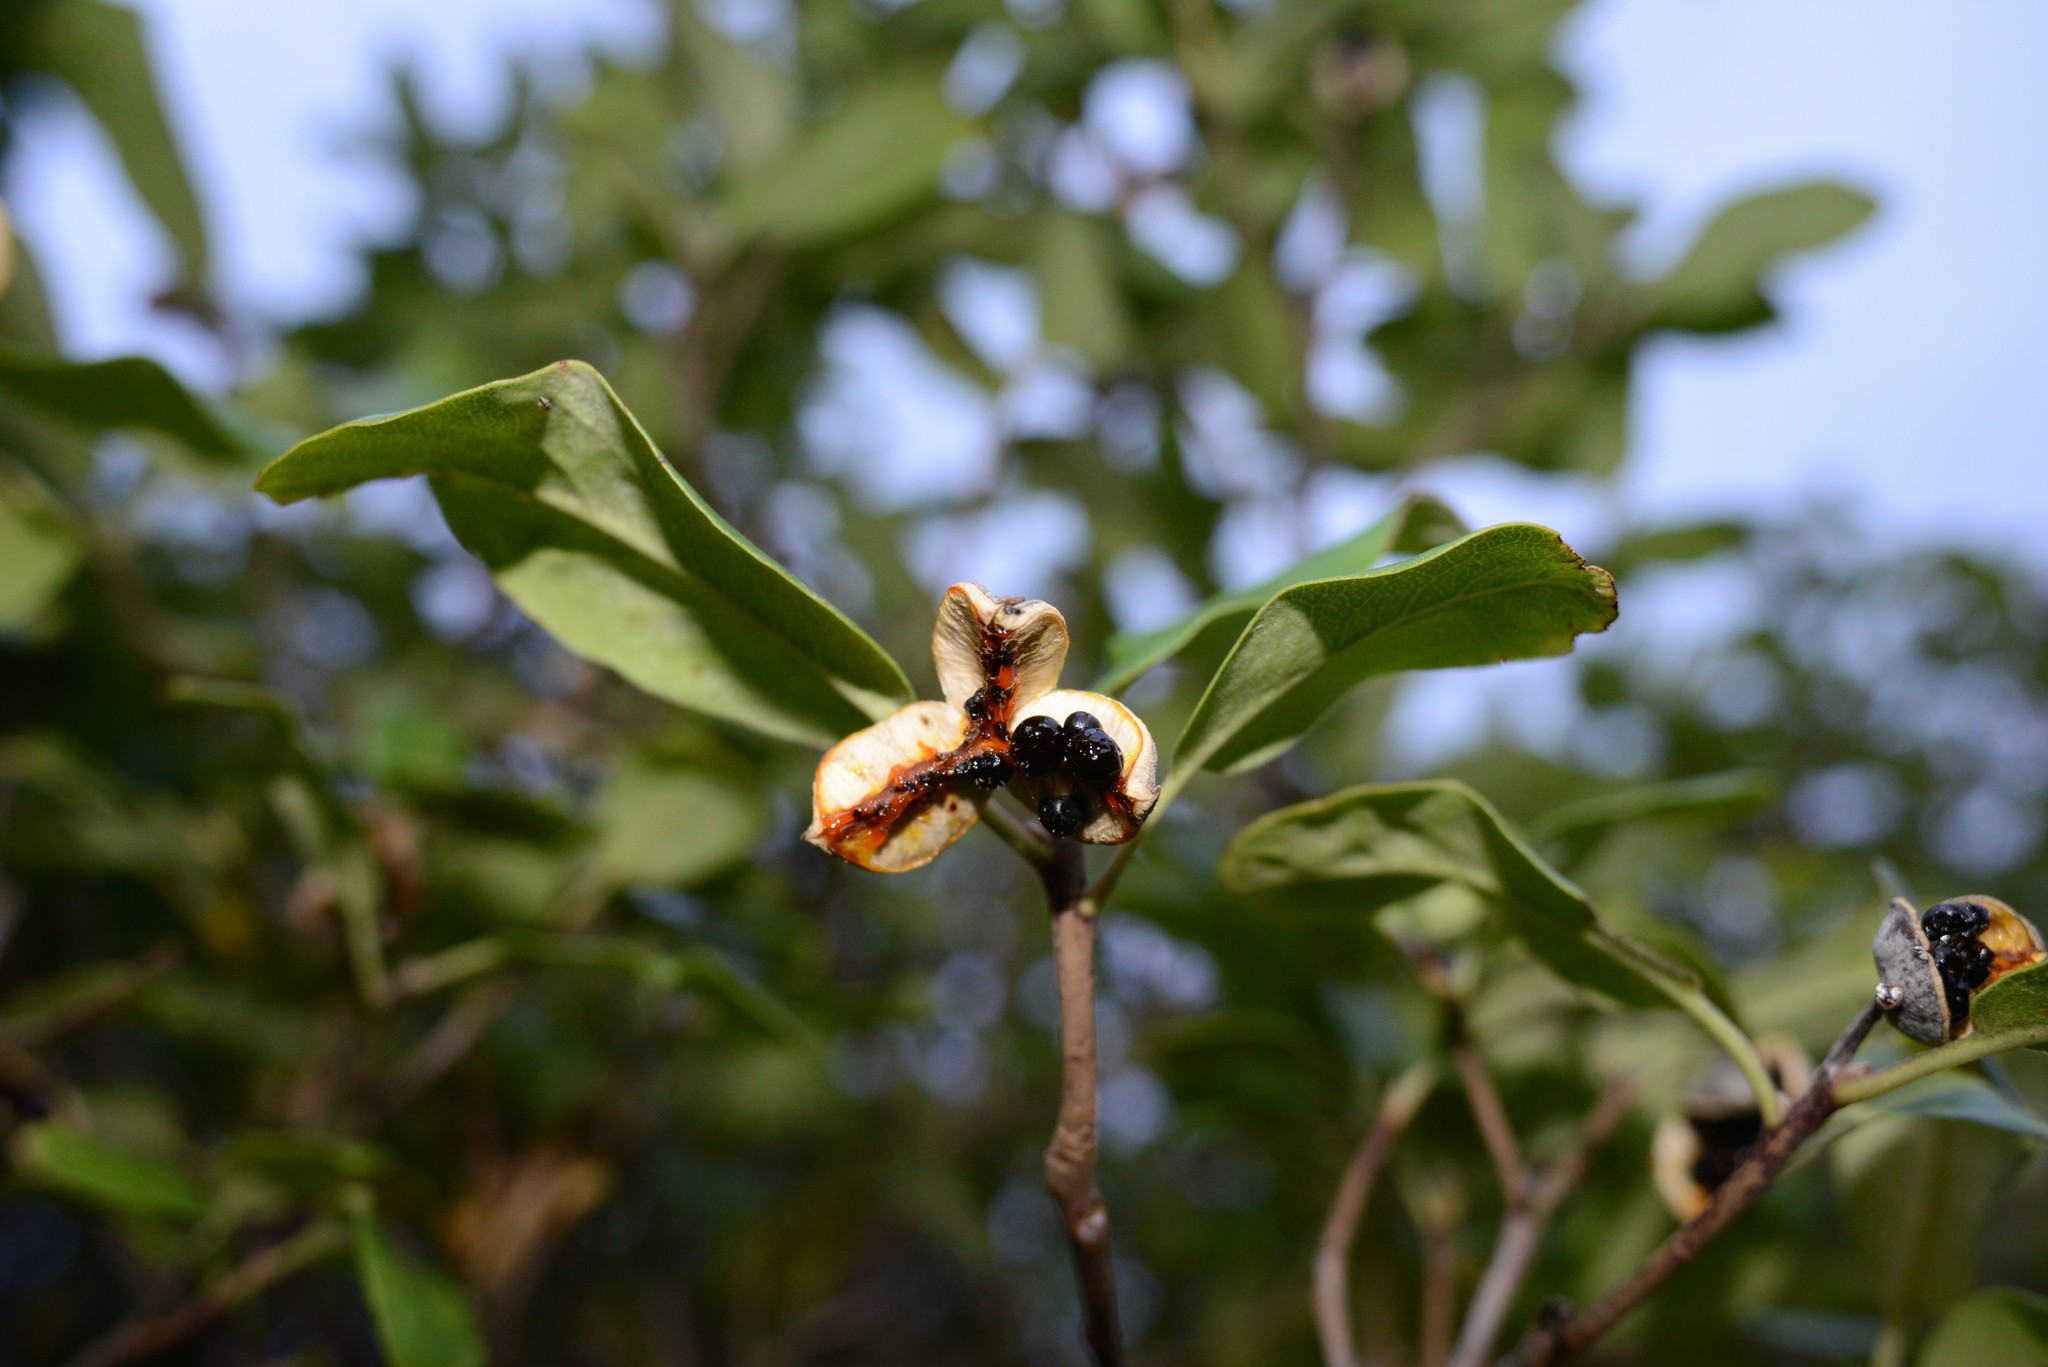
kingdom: Plantae
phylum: Tracheophyta
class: Magnoliopsida
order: Apiales
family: Pittosporaceae
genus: Pittosporum
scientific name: Pittosporum tenuifolium
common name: Kohuhu
